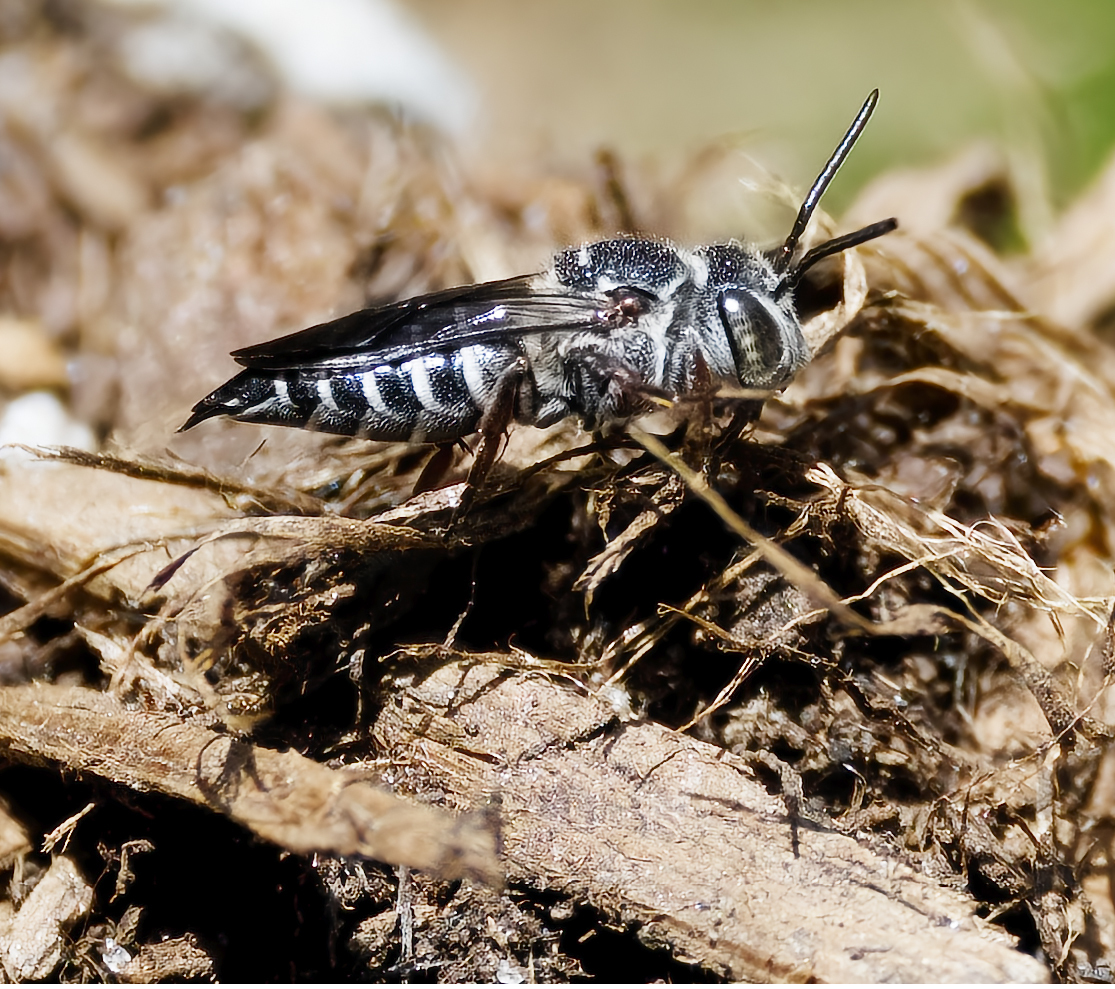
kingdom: Animalia
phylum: Arthropoda
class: Insecta
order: Hymenoptera
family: Megachilidae
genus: Coelioxys
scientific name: Coelioxys
